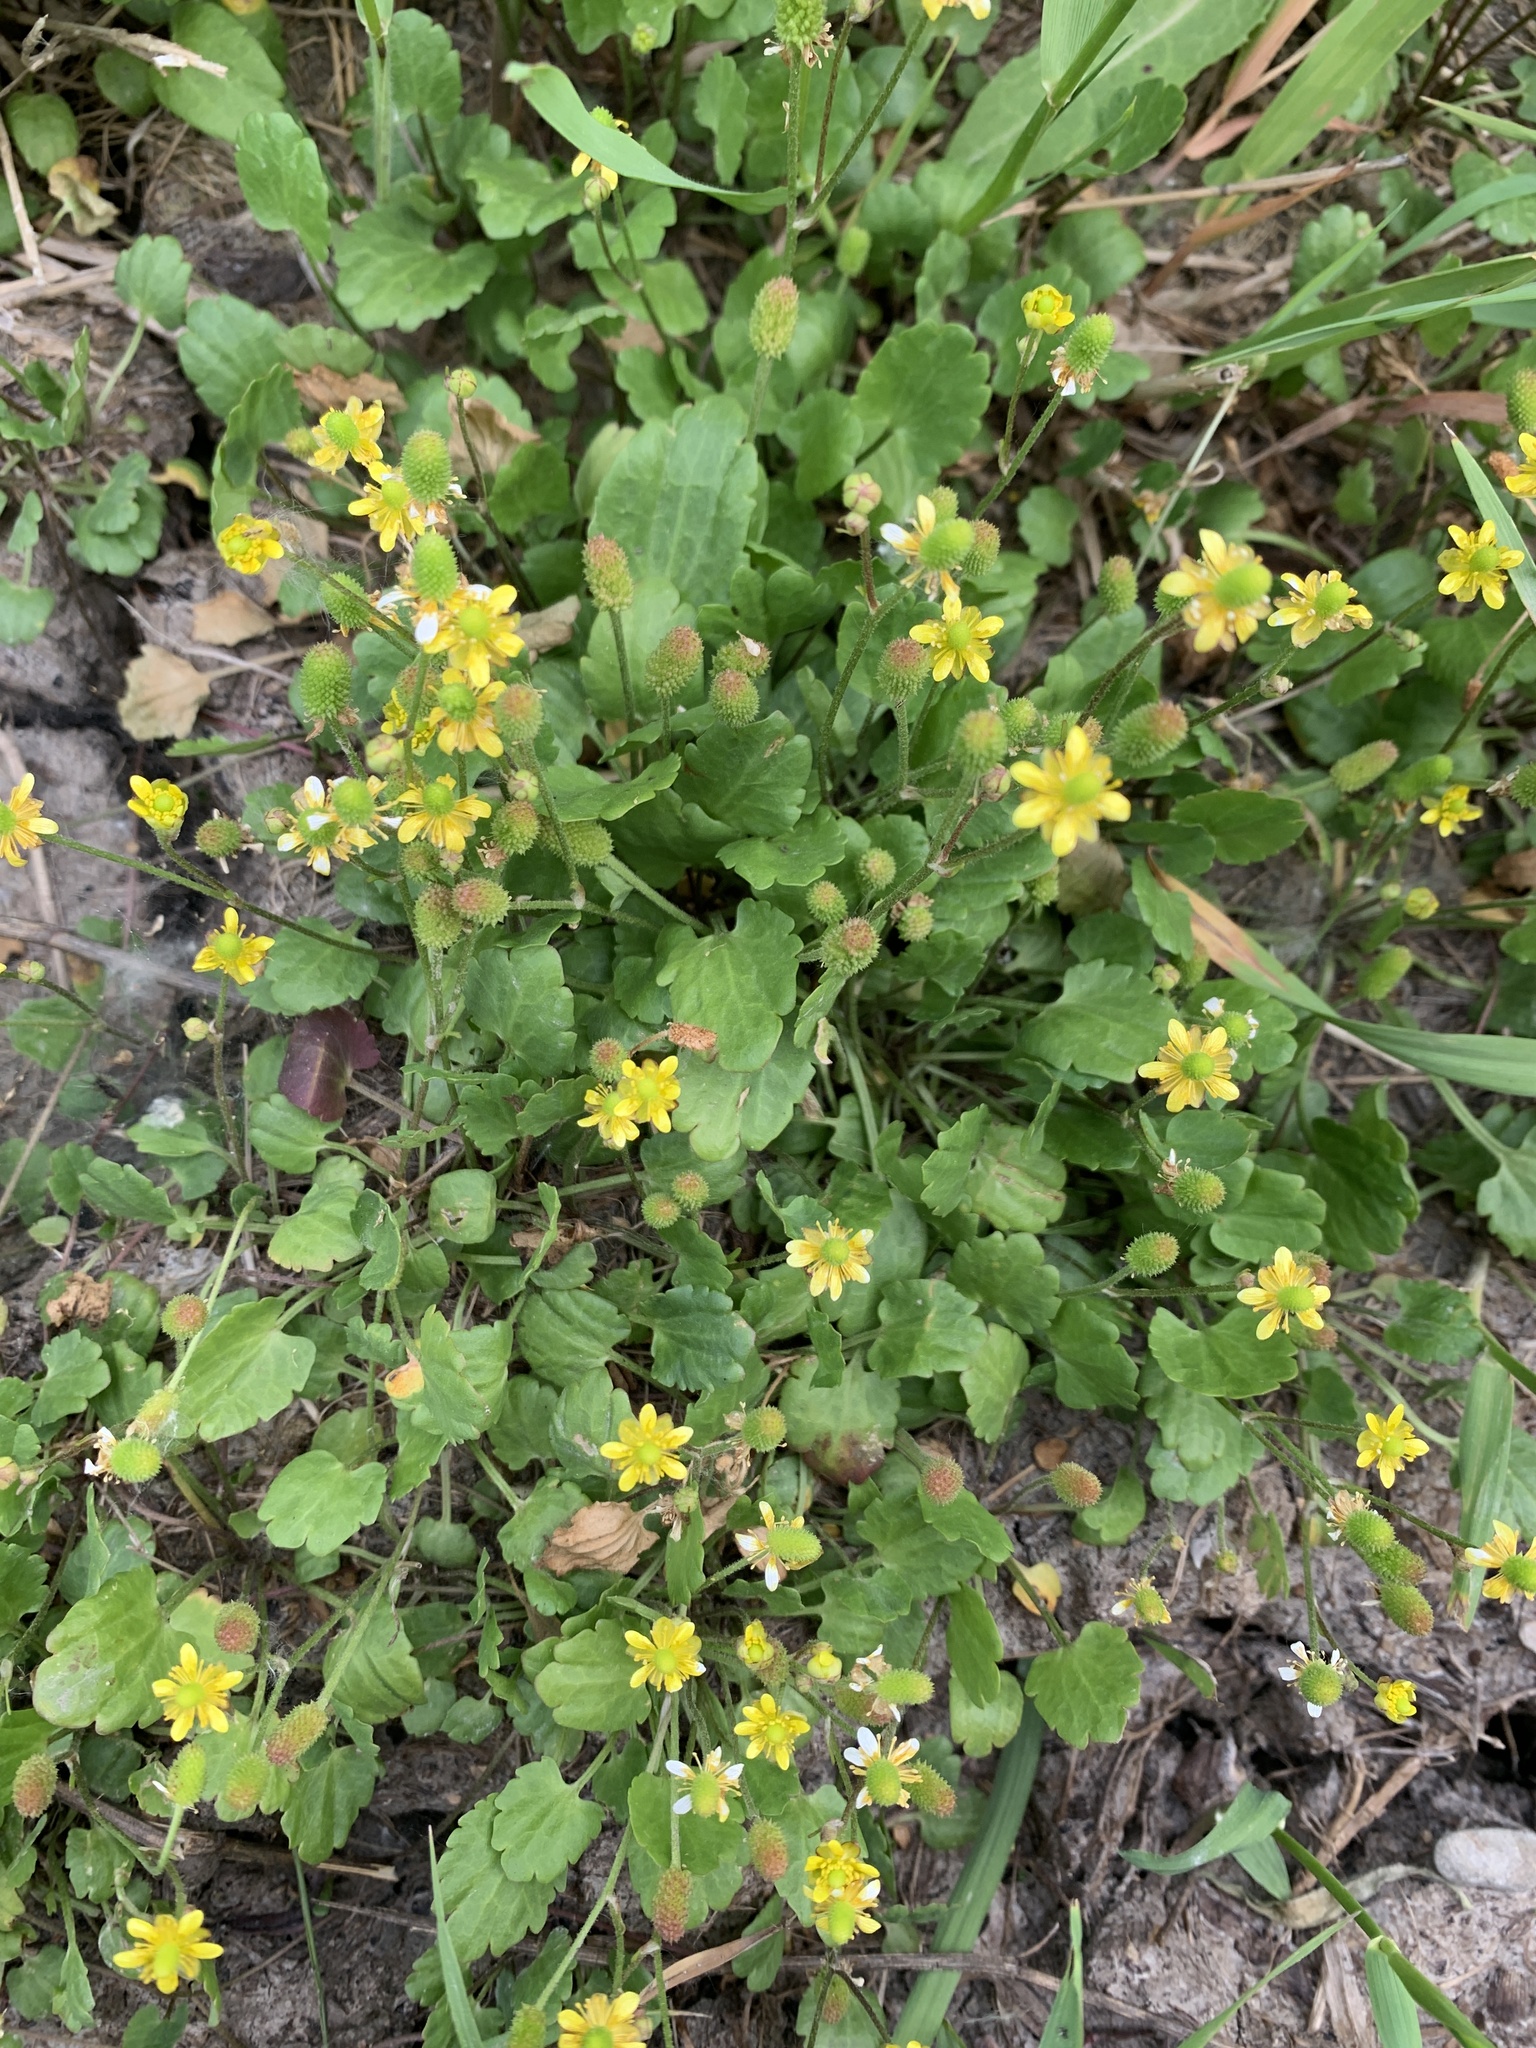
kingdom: Plantae
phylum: Tracheophyta
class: Magnoliopsida
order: Ranunculales
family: Ranunculaceae
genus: Halerpestes
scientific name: Halerpestes cymbalaria
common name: Seaside crowfoot
